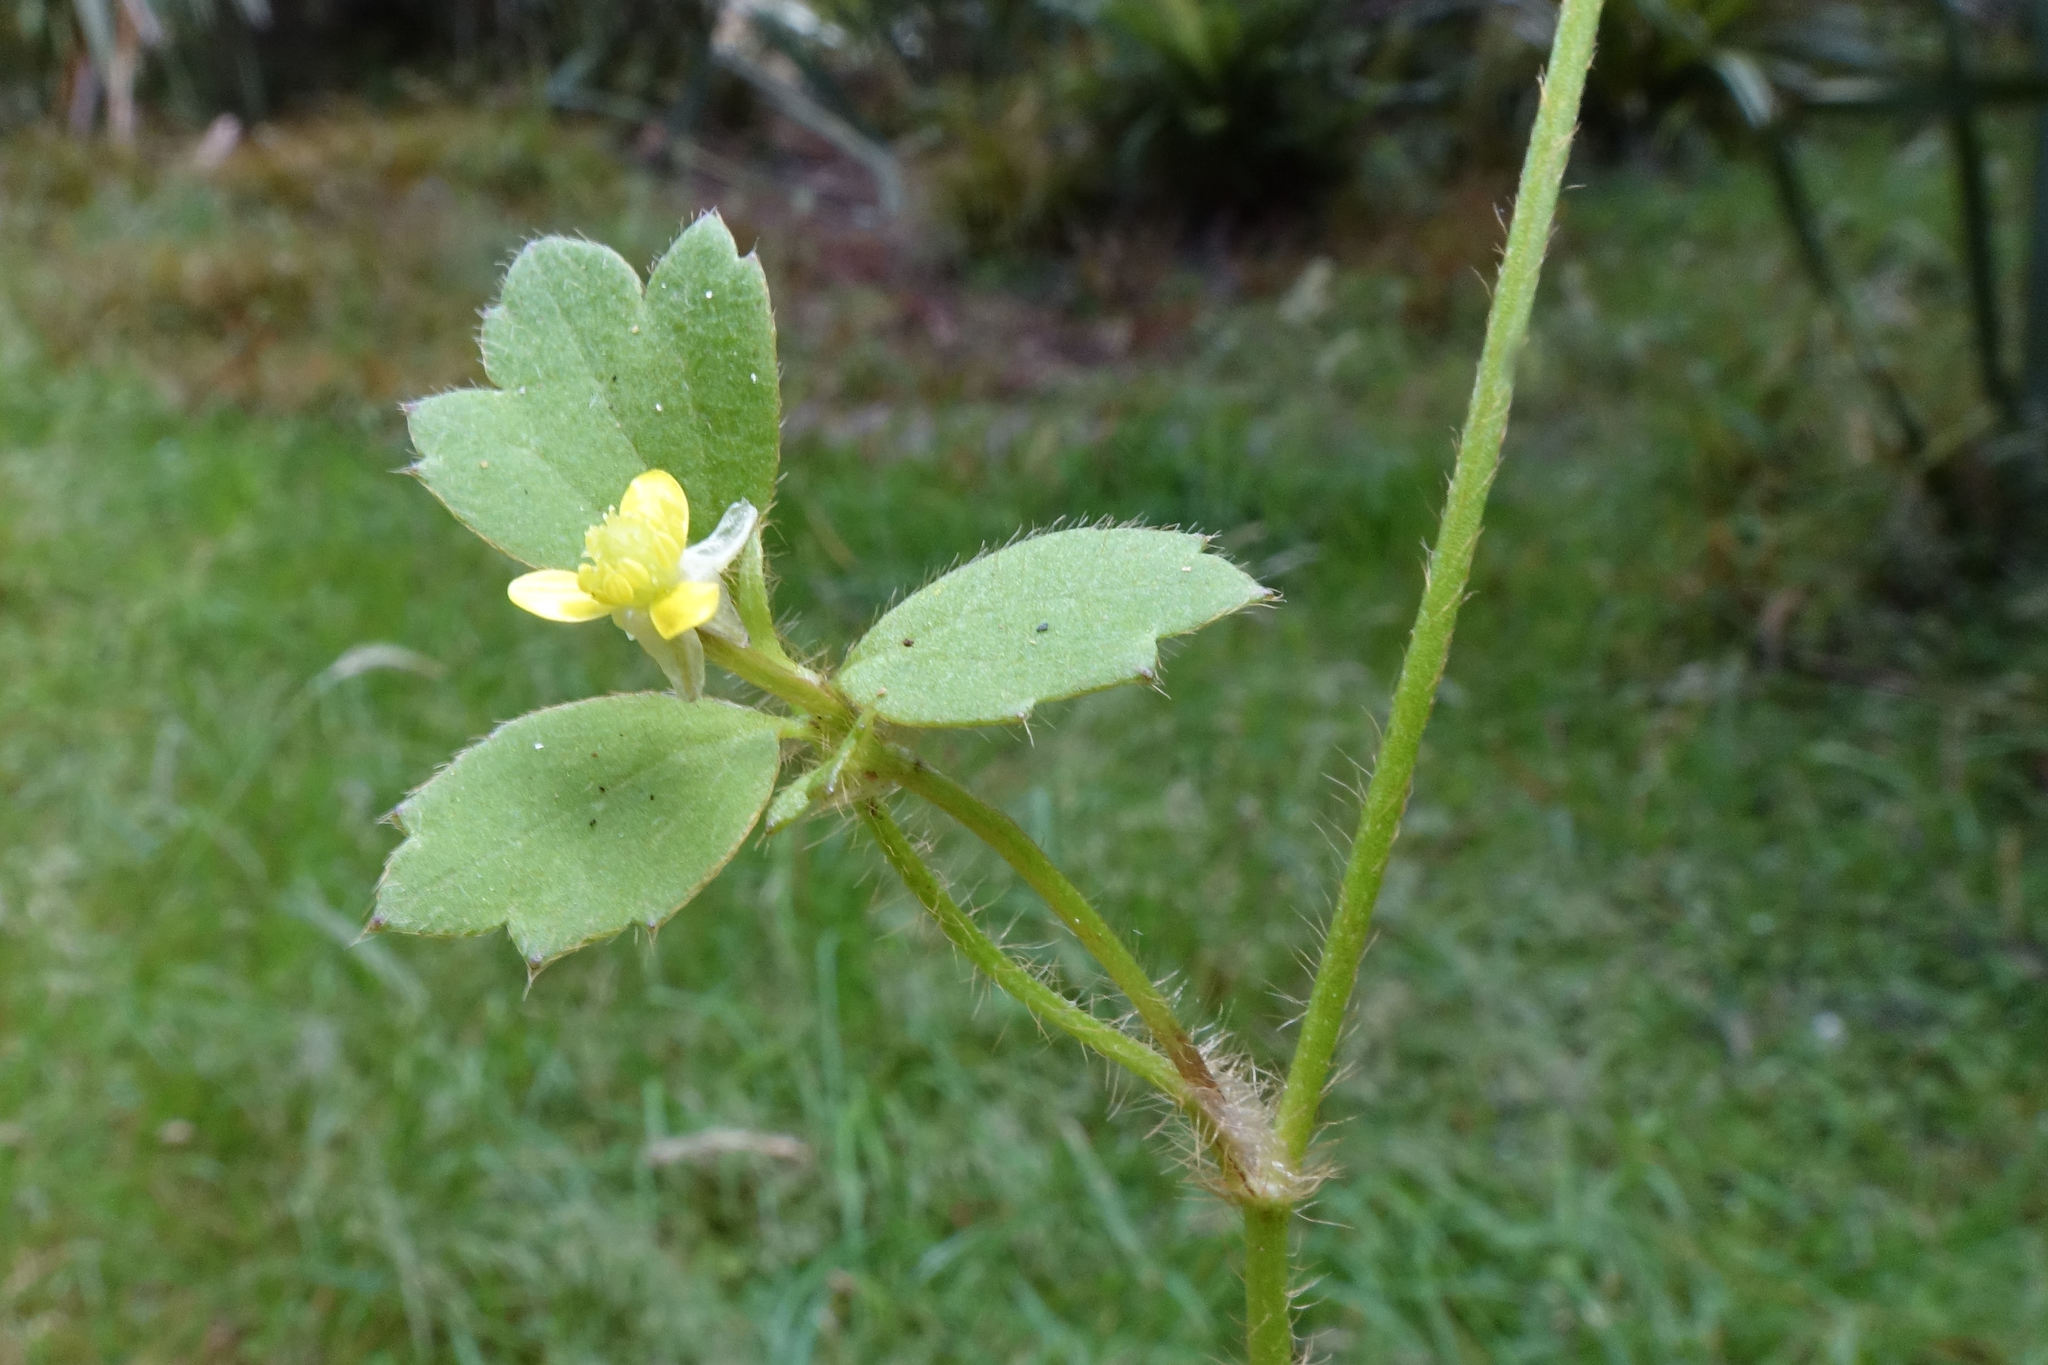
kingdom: Plantae
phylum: Tracheophyta
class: Magnoliopsida
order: Ranunculales
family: Ranunculaceae
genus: Ranunculus
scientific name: Ranunculus reflexus
